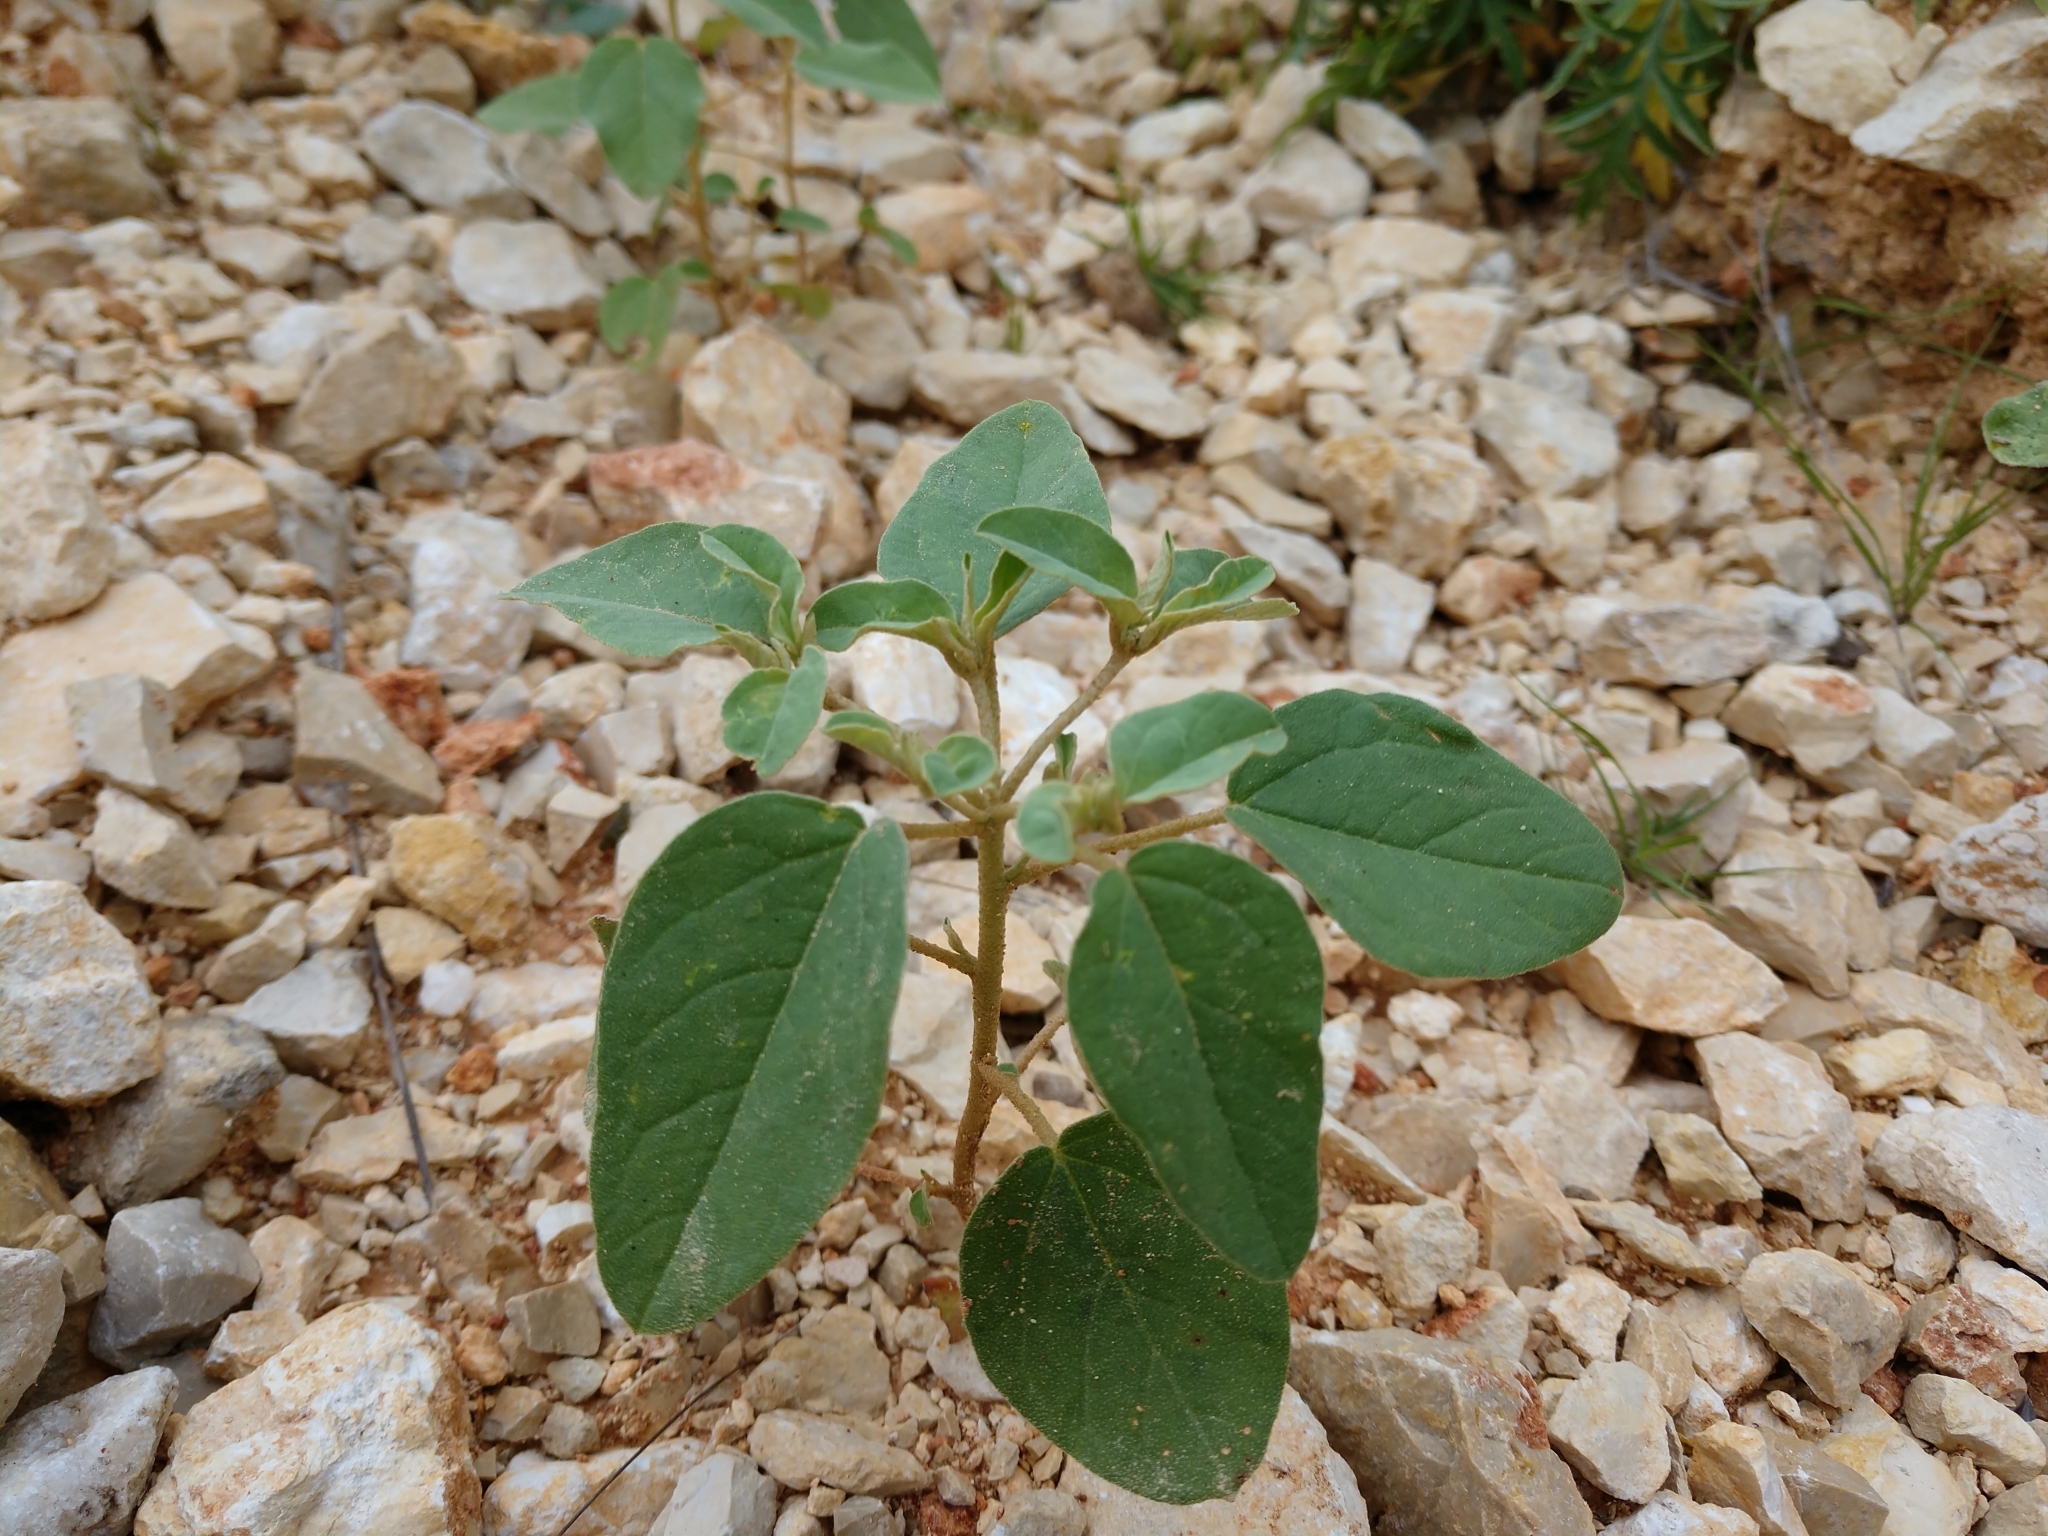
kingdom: Plantae
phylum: Tracheophyta
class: Magnoliopsida
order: Malpighiales
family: Euphorbiaceae
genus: Croton
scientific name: Croton monanthogynus
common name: One-seed croton
